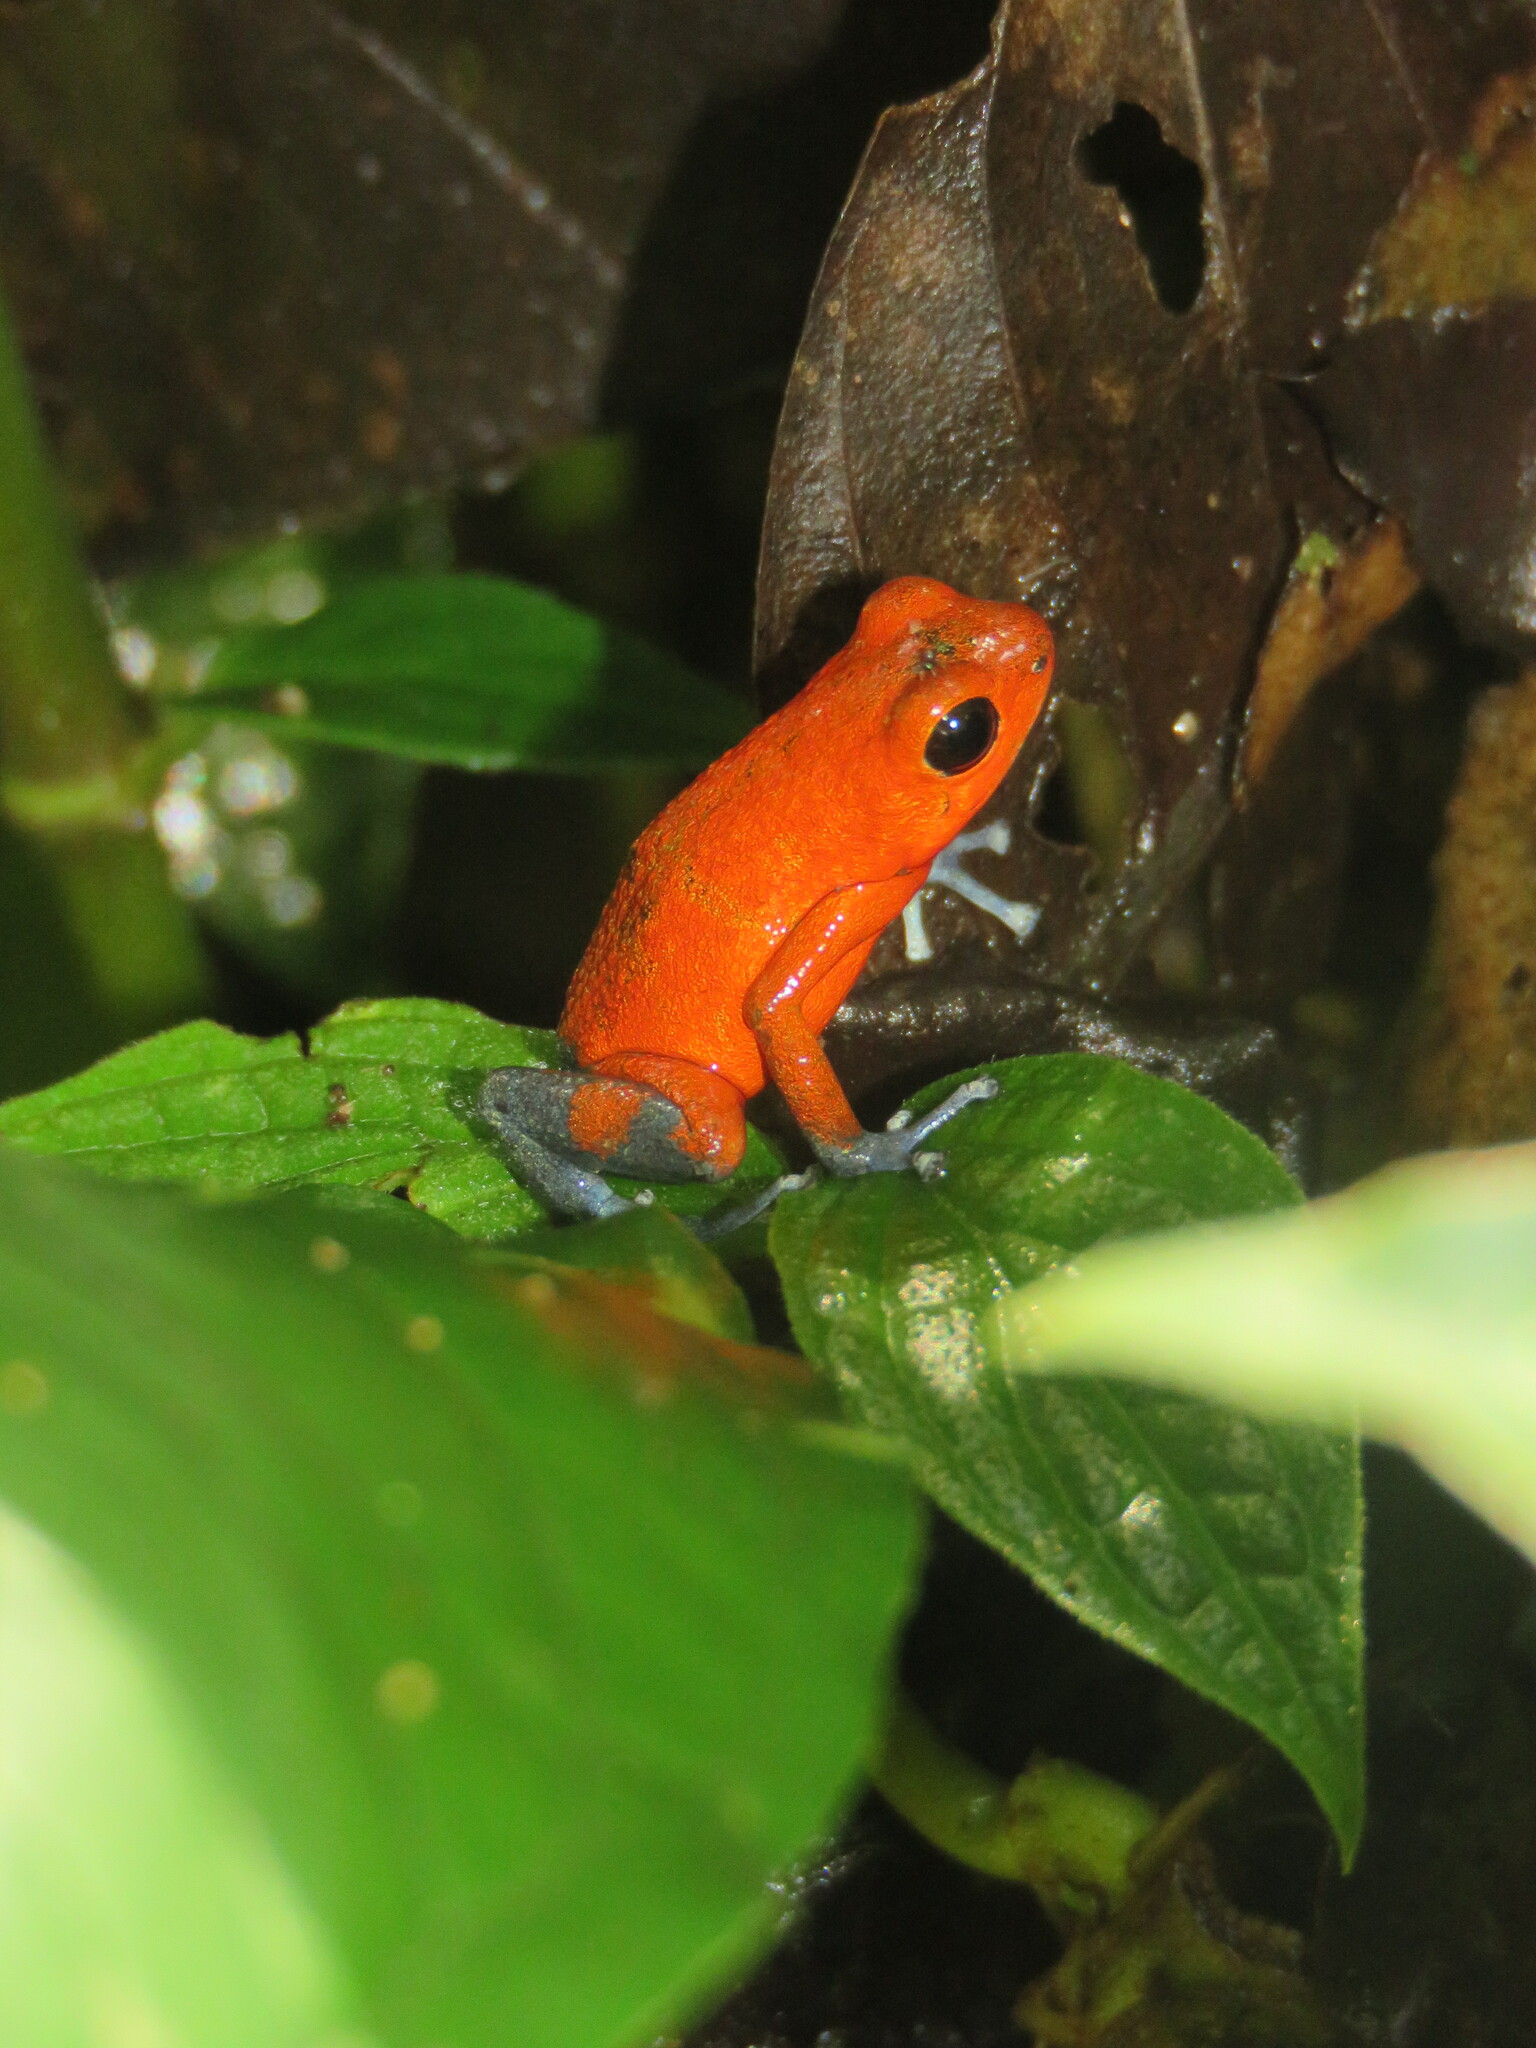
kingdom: Animalia
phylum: Chordata
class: Amphibia
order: Anura
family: Dendrobatidae
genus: Oophaga
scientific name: Oophaga pumilio
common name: Flaming poison frog
